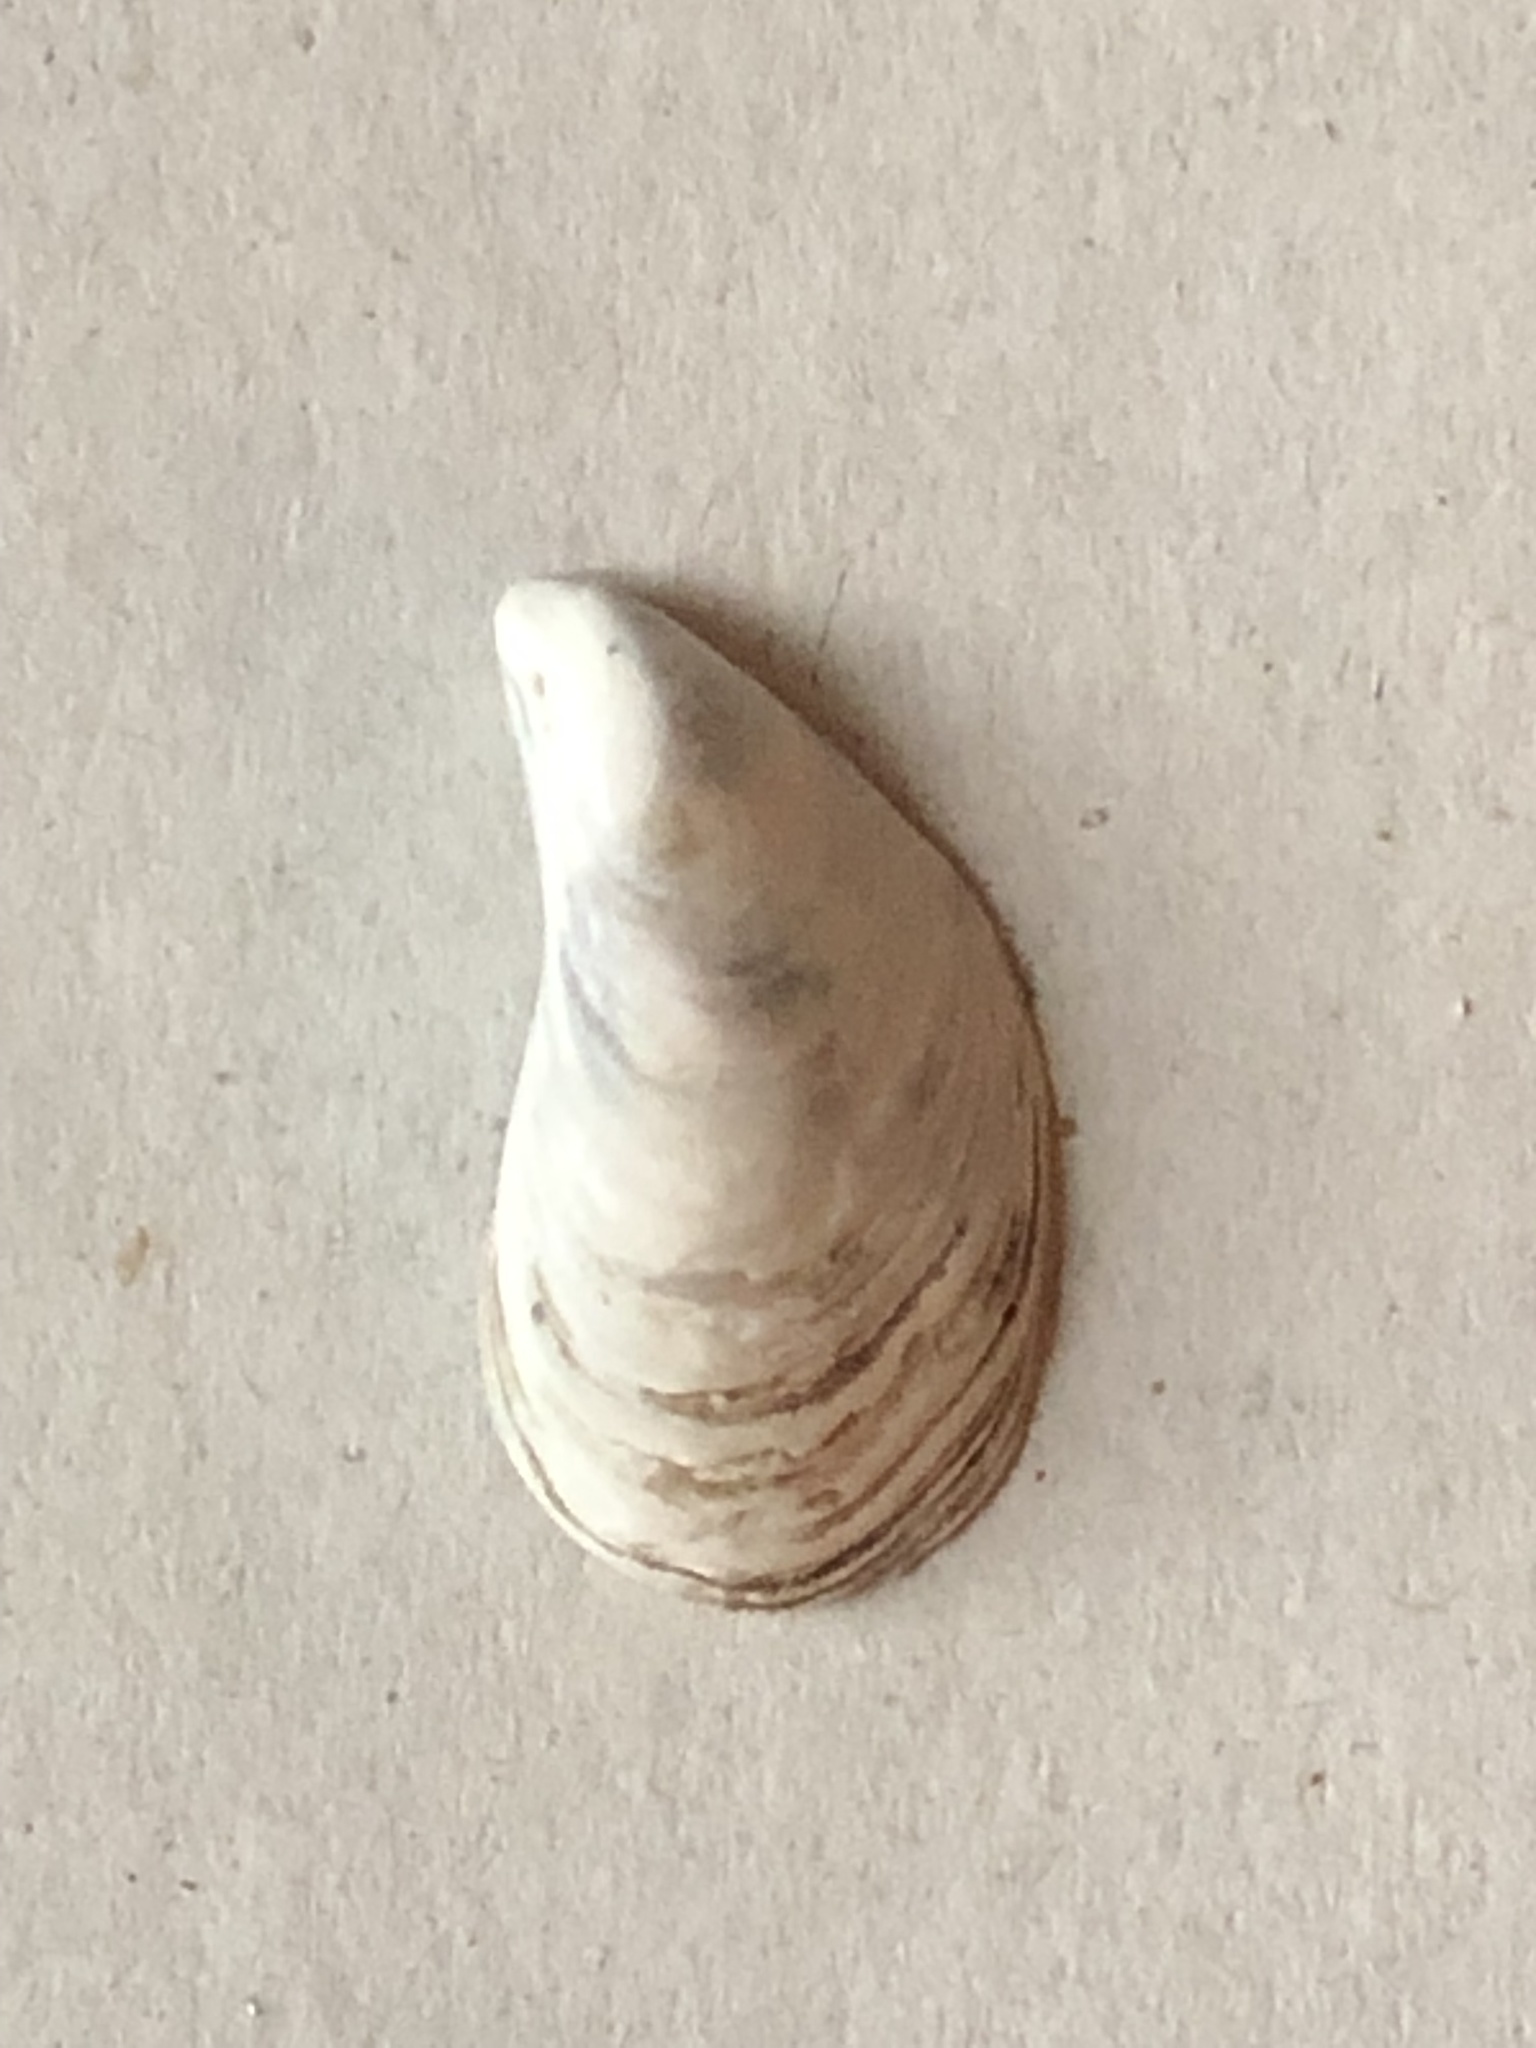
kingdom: Animalia
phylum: Mollusca
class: Bivalvia
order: Myida
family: Dreissenidae
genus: Dreissena
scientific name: Dreissena bugensis
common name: Quagga mussel
